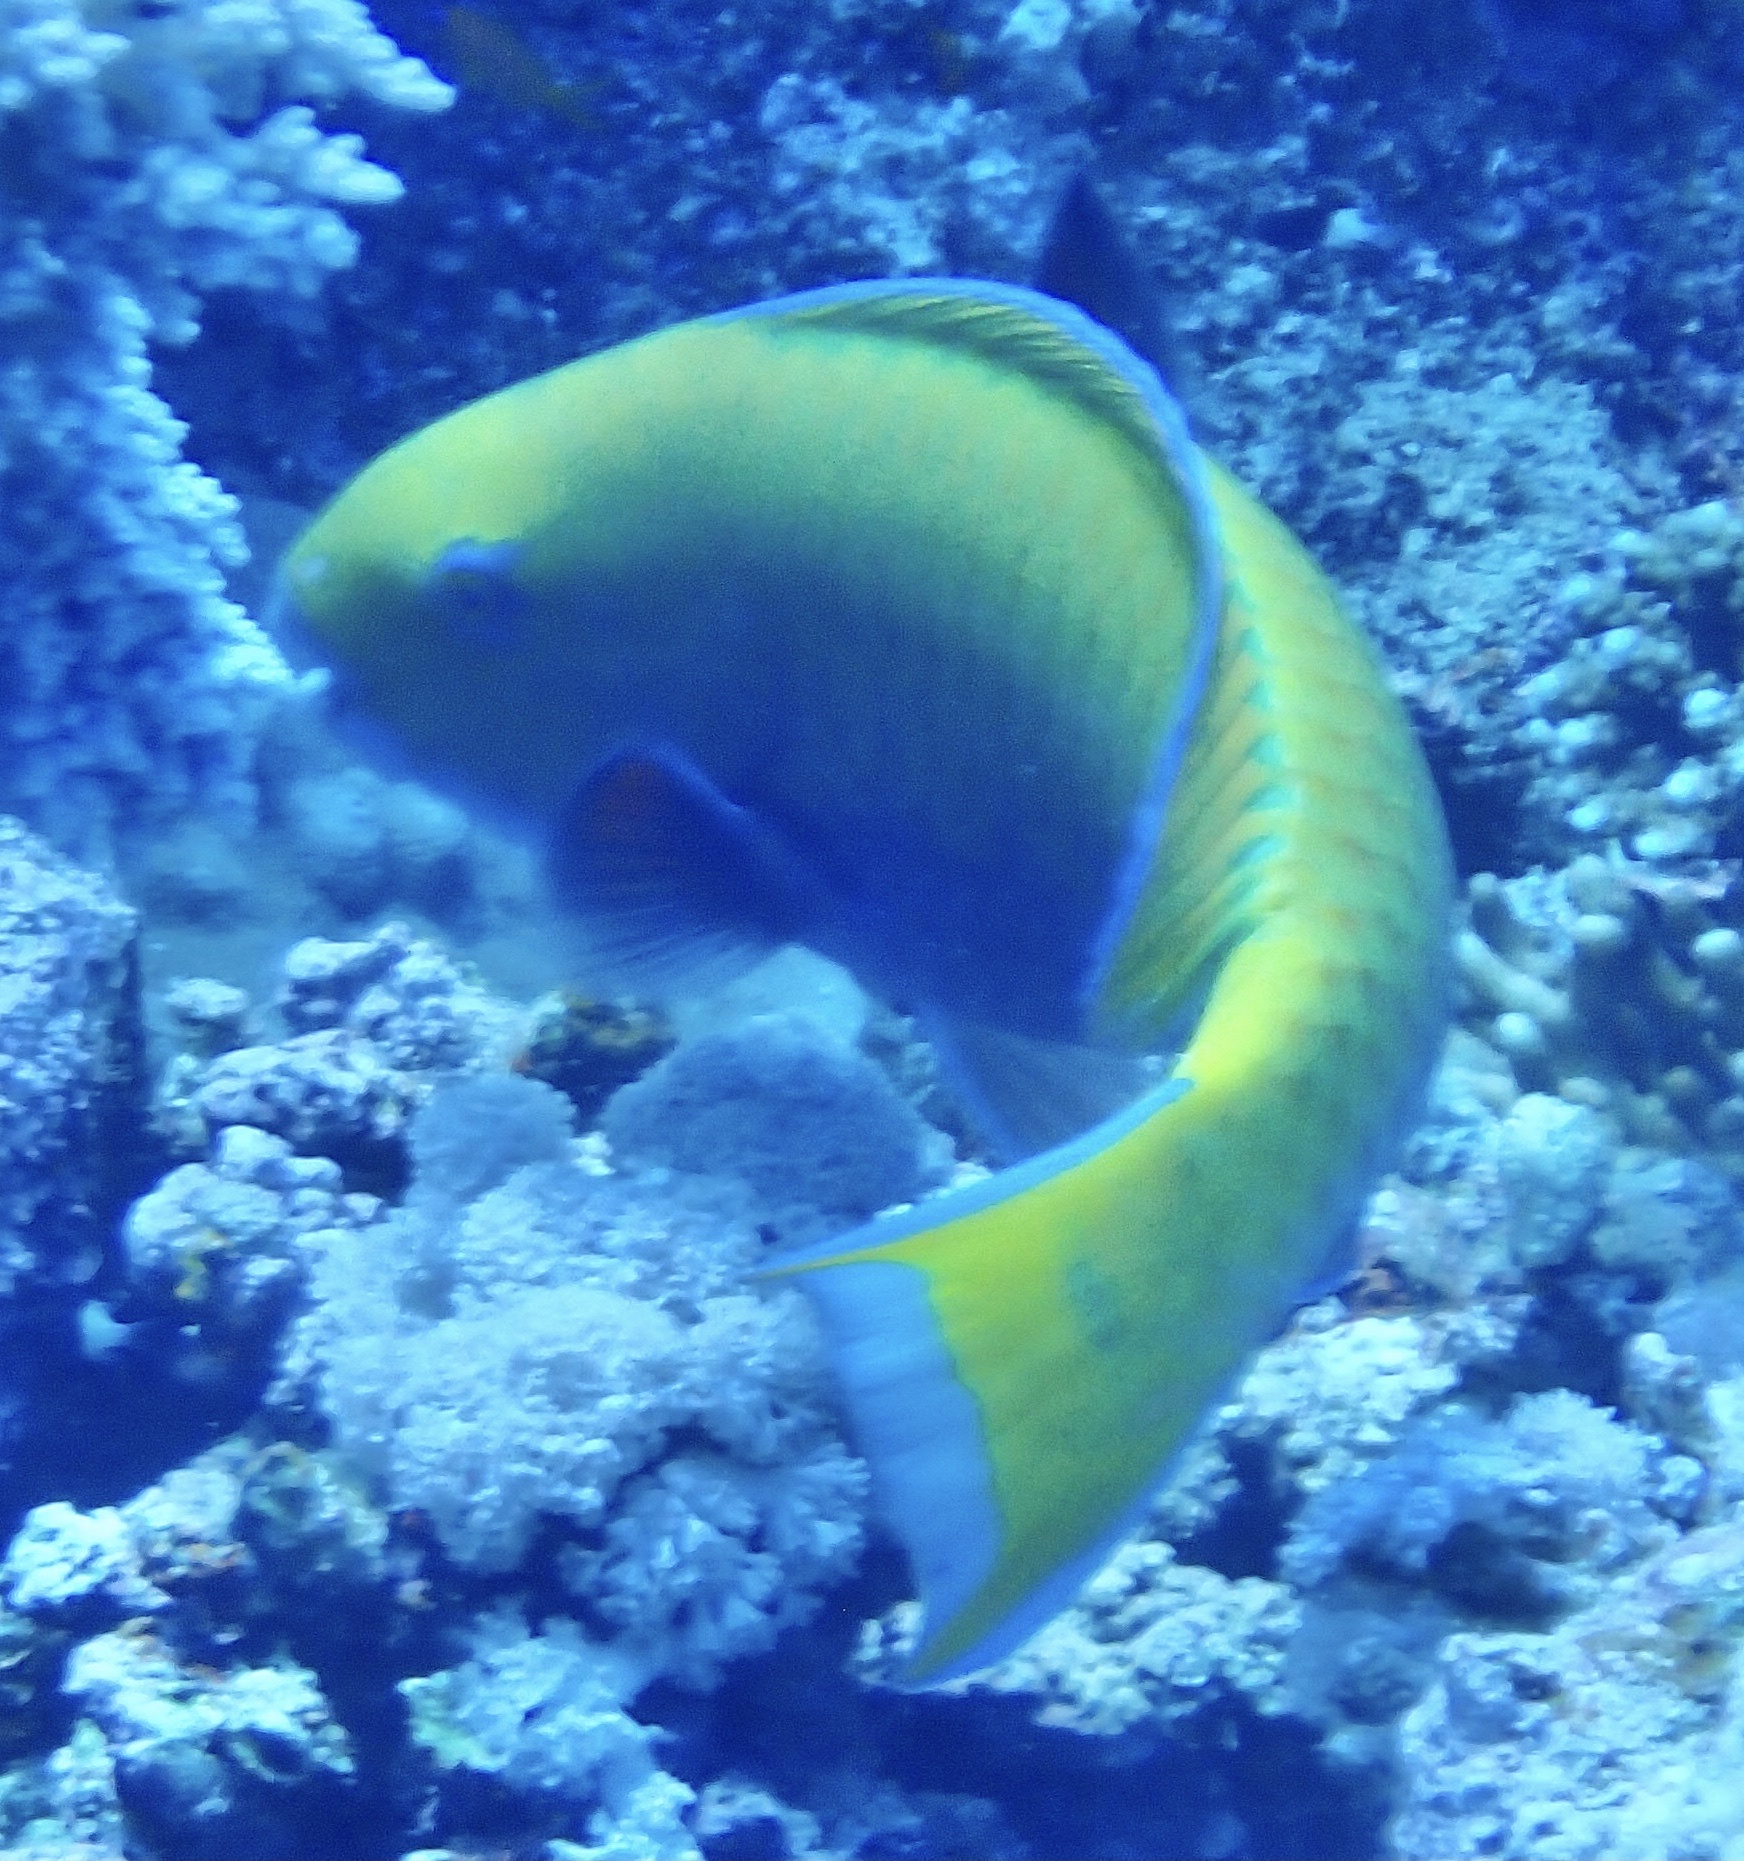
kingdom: Animalia
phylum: Chordata
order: Perciformes
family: Scaridae
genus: Chlorurus
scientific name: Chlorurus gibbus
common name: Heavybeak parrotfish
